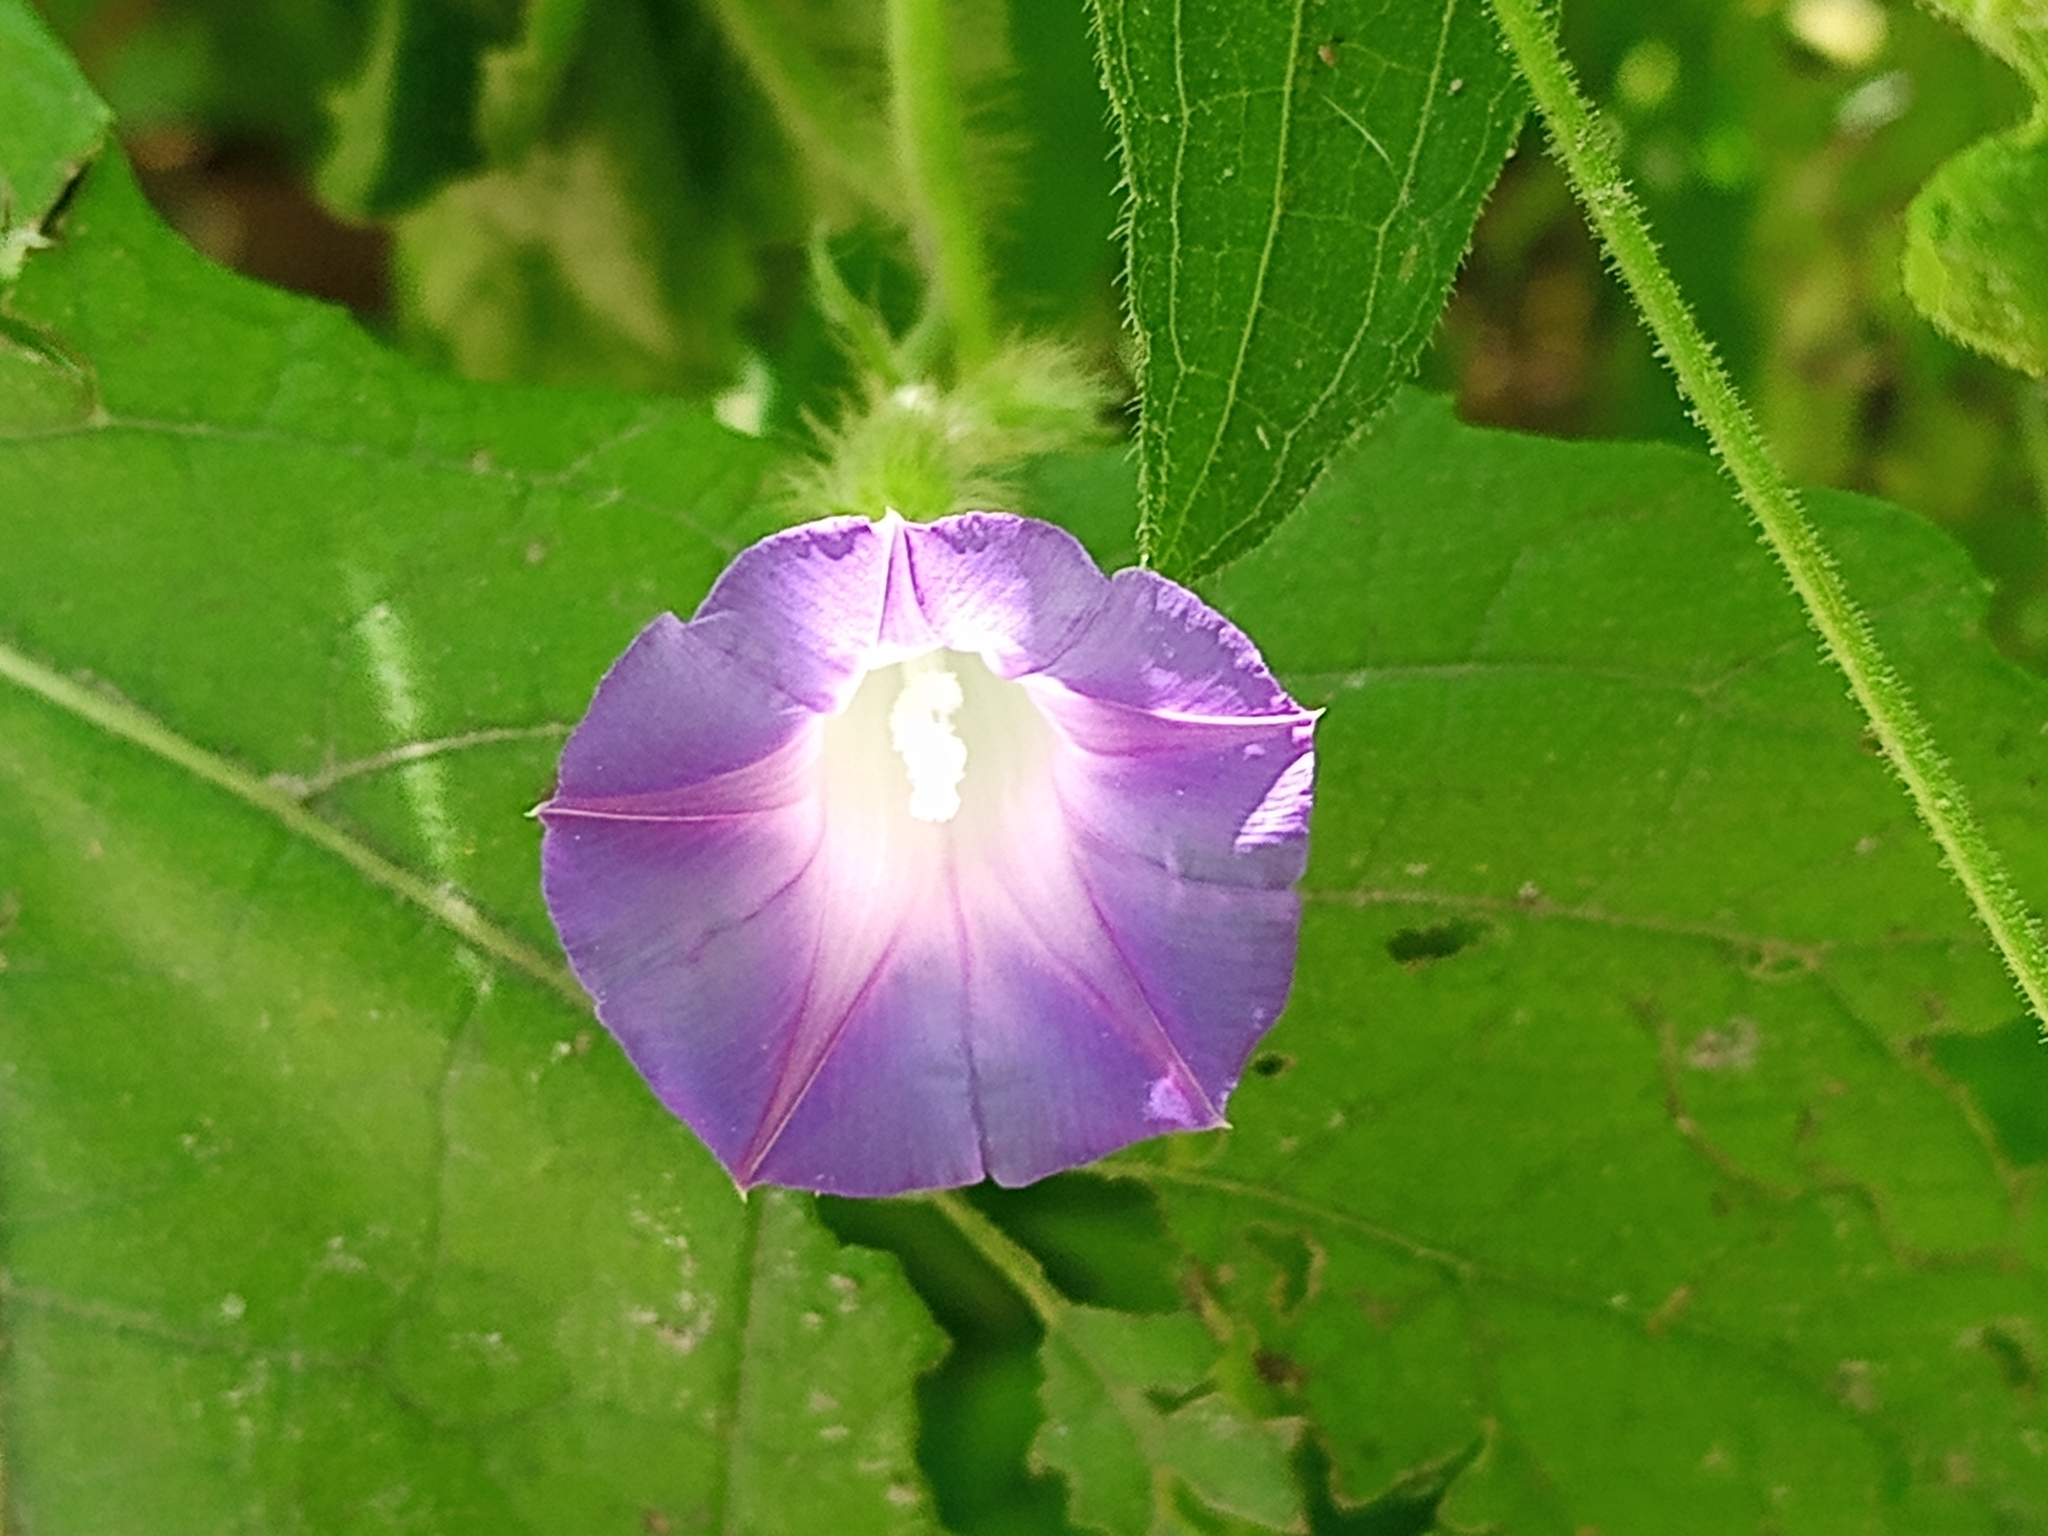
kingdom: Plantae
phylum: Tracheophyta
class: Magnoliopsida
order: Solanales
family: Convolvulaceae
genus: Ipomoea
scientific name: Ipomoea purpurea
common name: Common morning-glory
